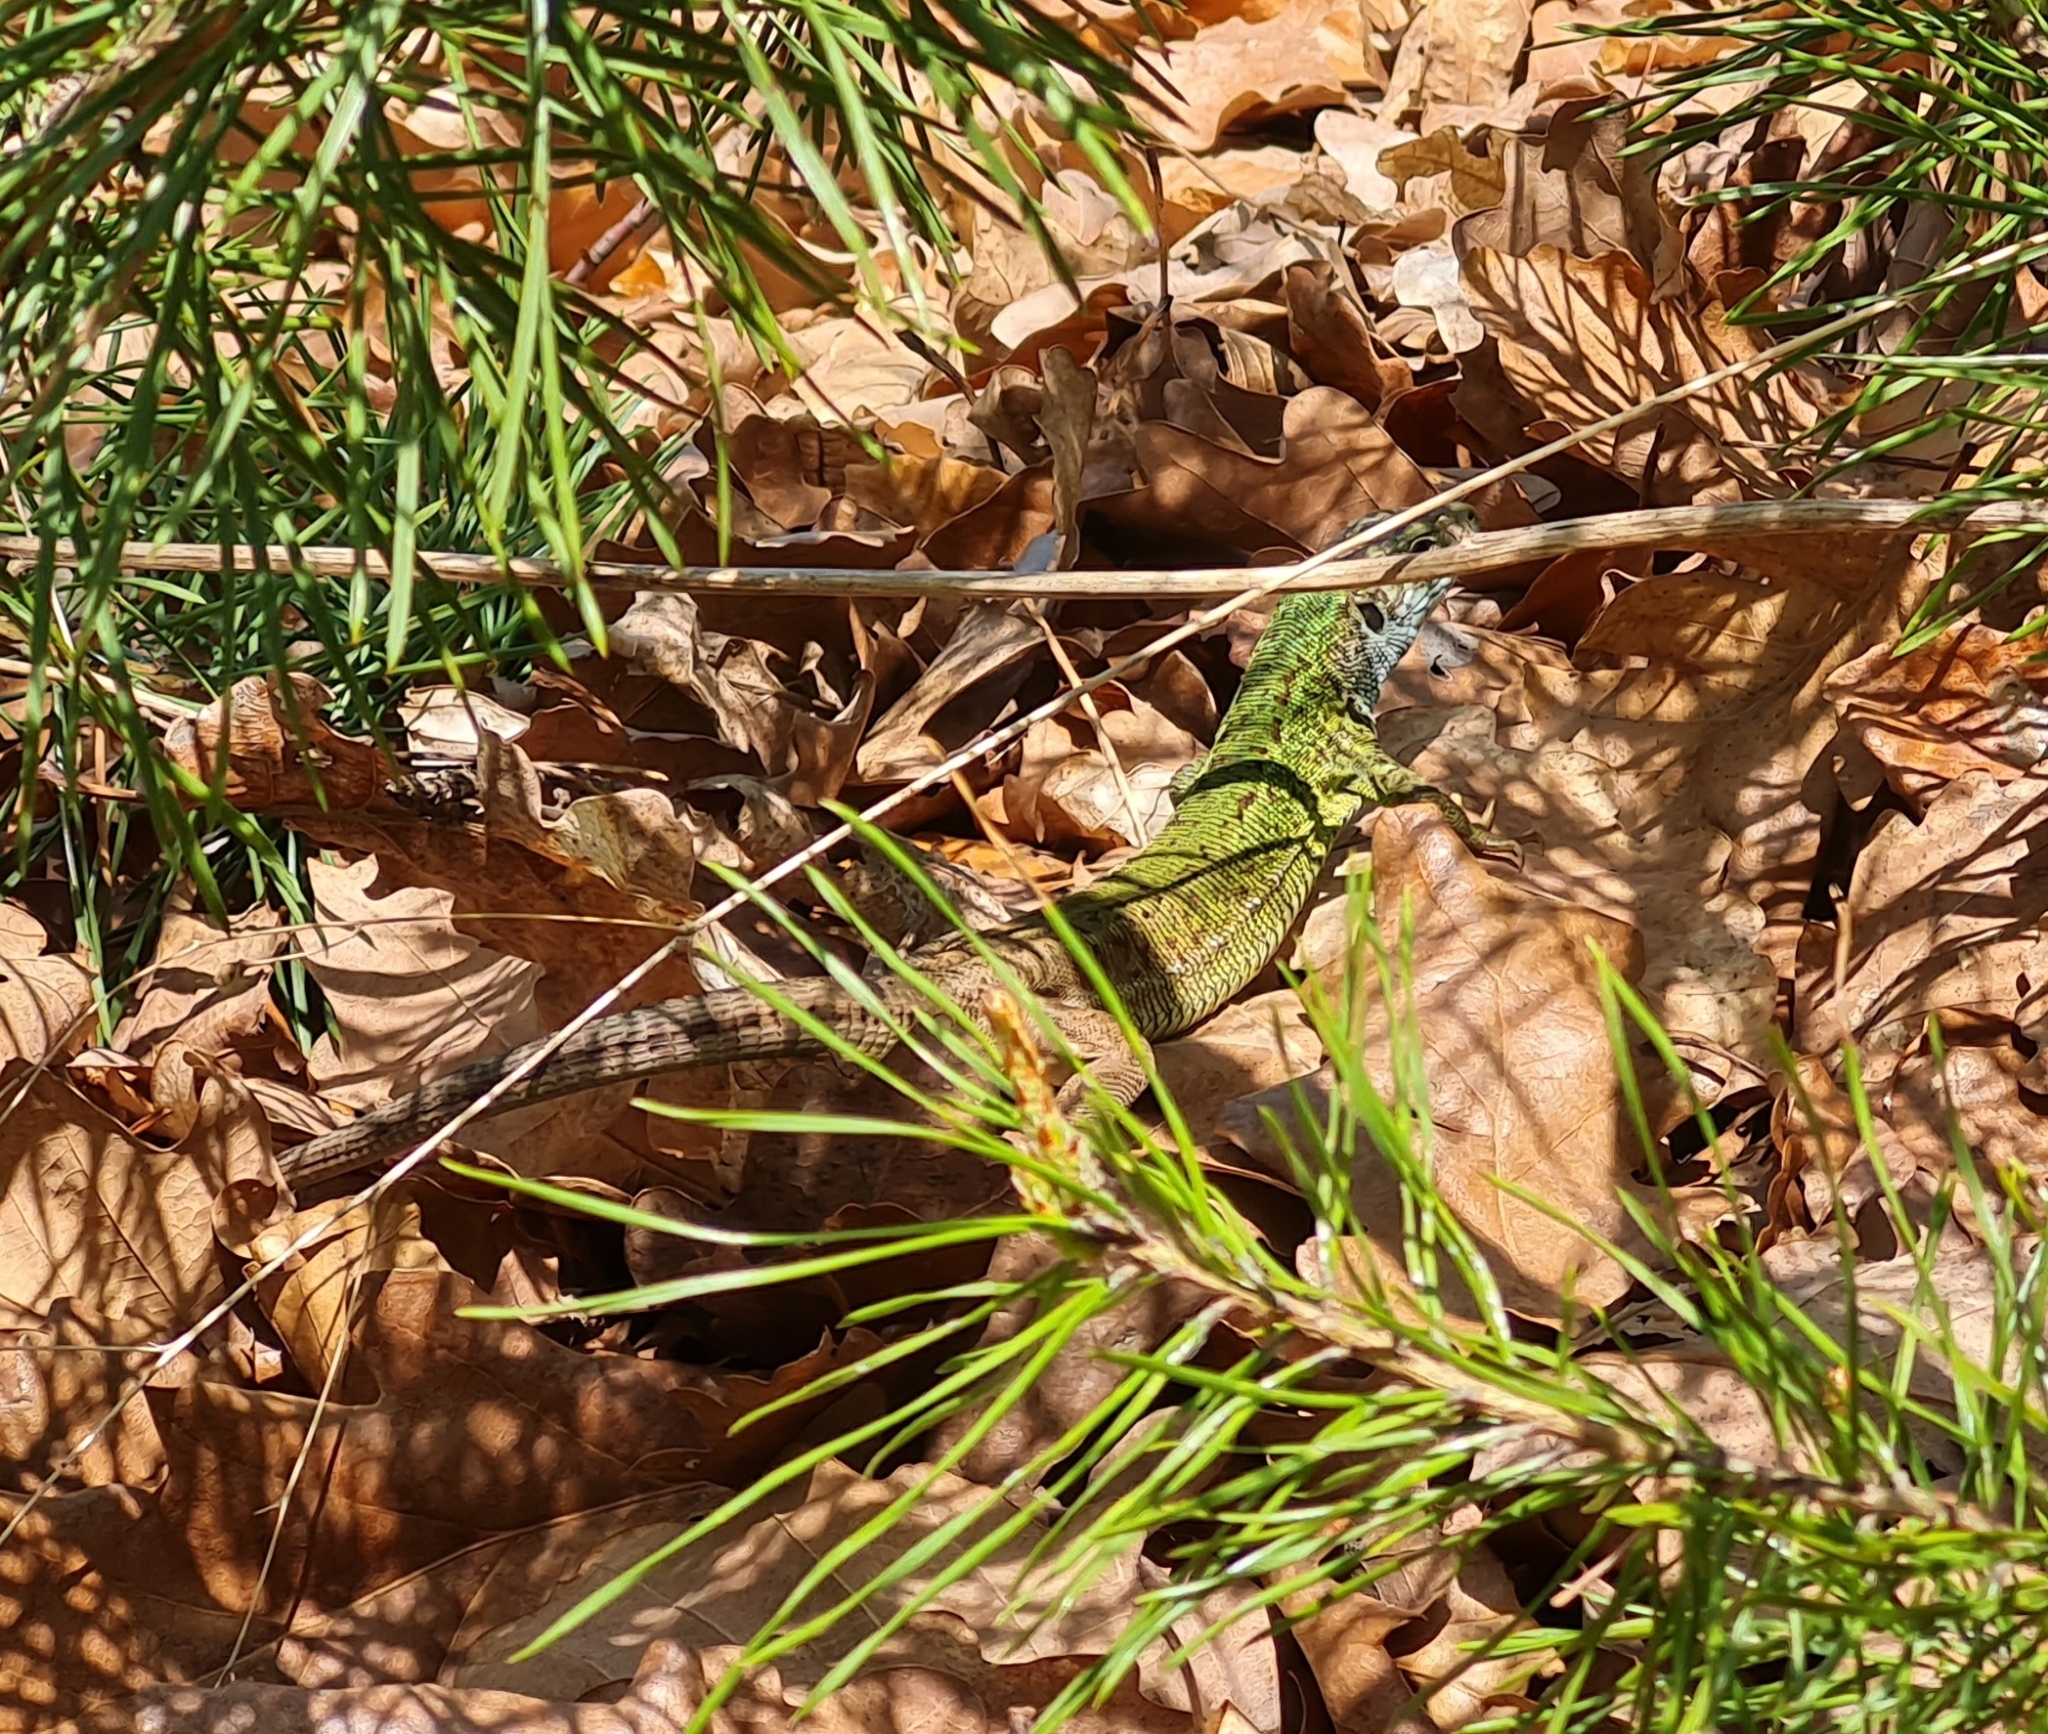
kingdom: Animalia
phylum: Chordata
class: Squamata
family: Lacertidae
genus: Lacerta
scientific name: Lacerta viridis
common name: European green lizard
